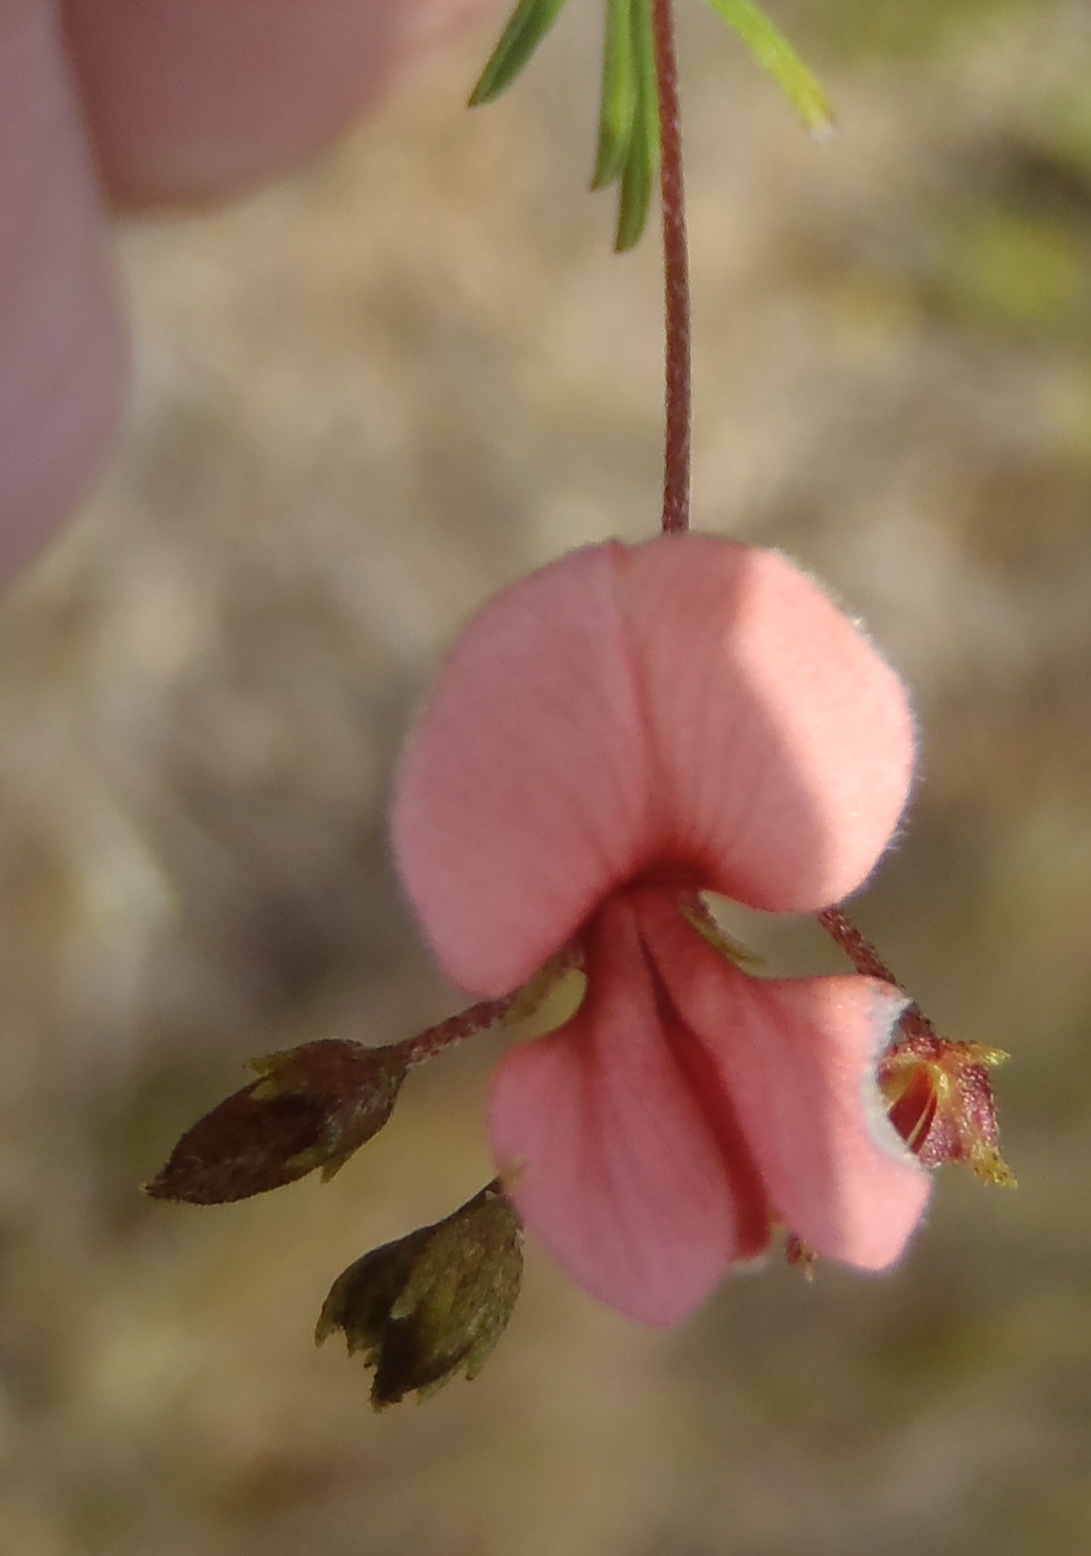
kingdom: Plantae
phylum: Tracheophyta
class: Magnoliopsida
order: Fabales
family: Fabaceae
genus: Indigofera
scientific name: Indigofera verrucosa
